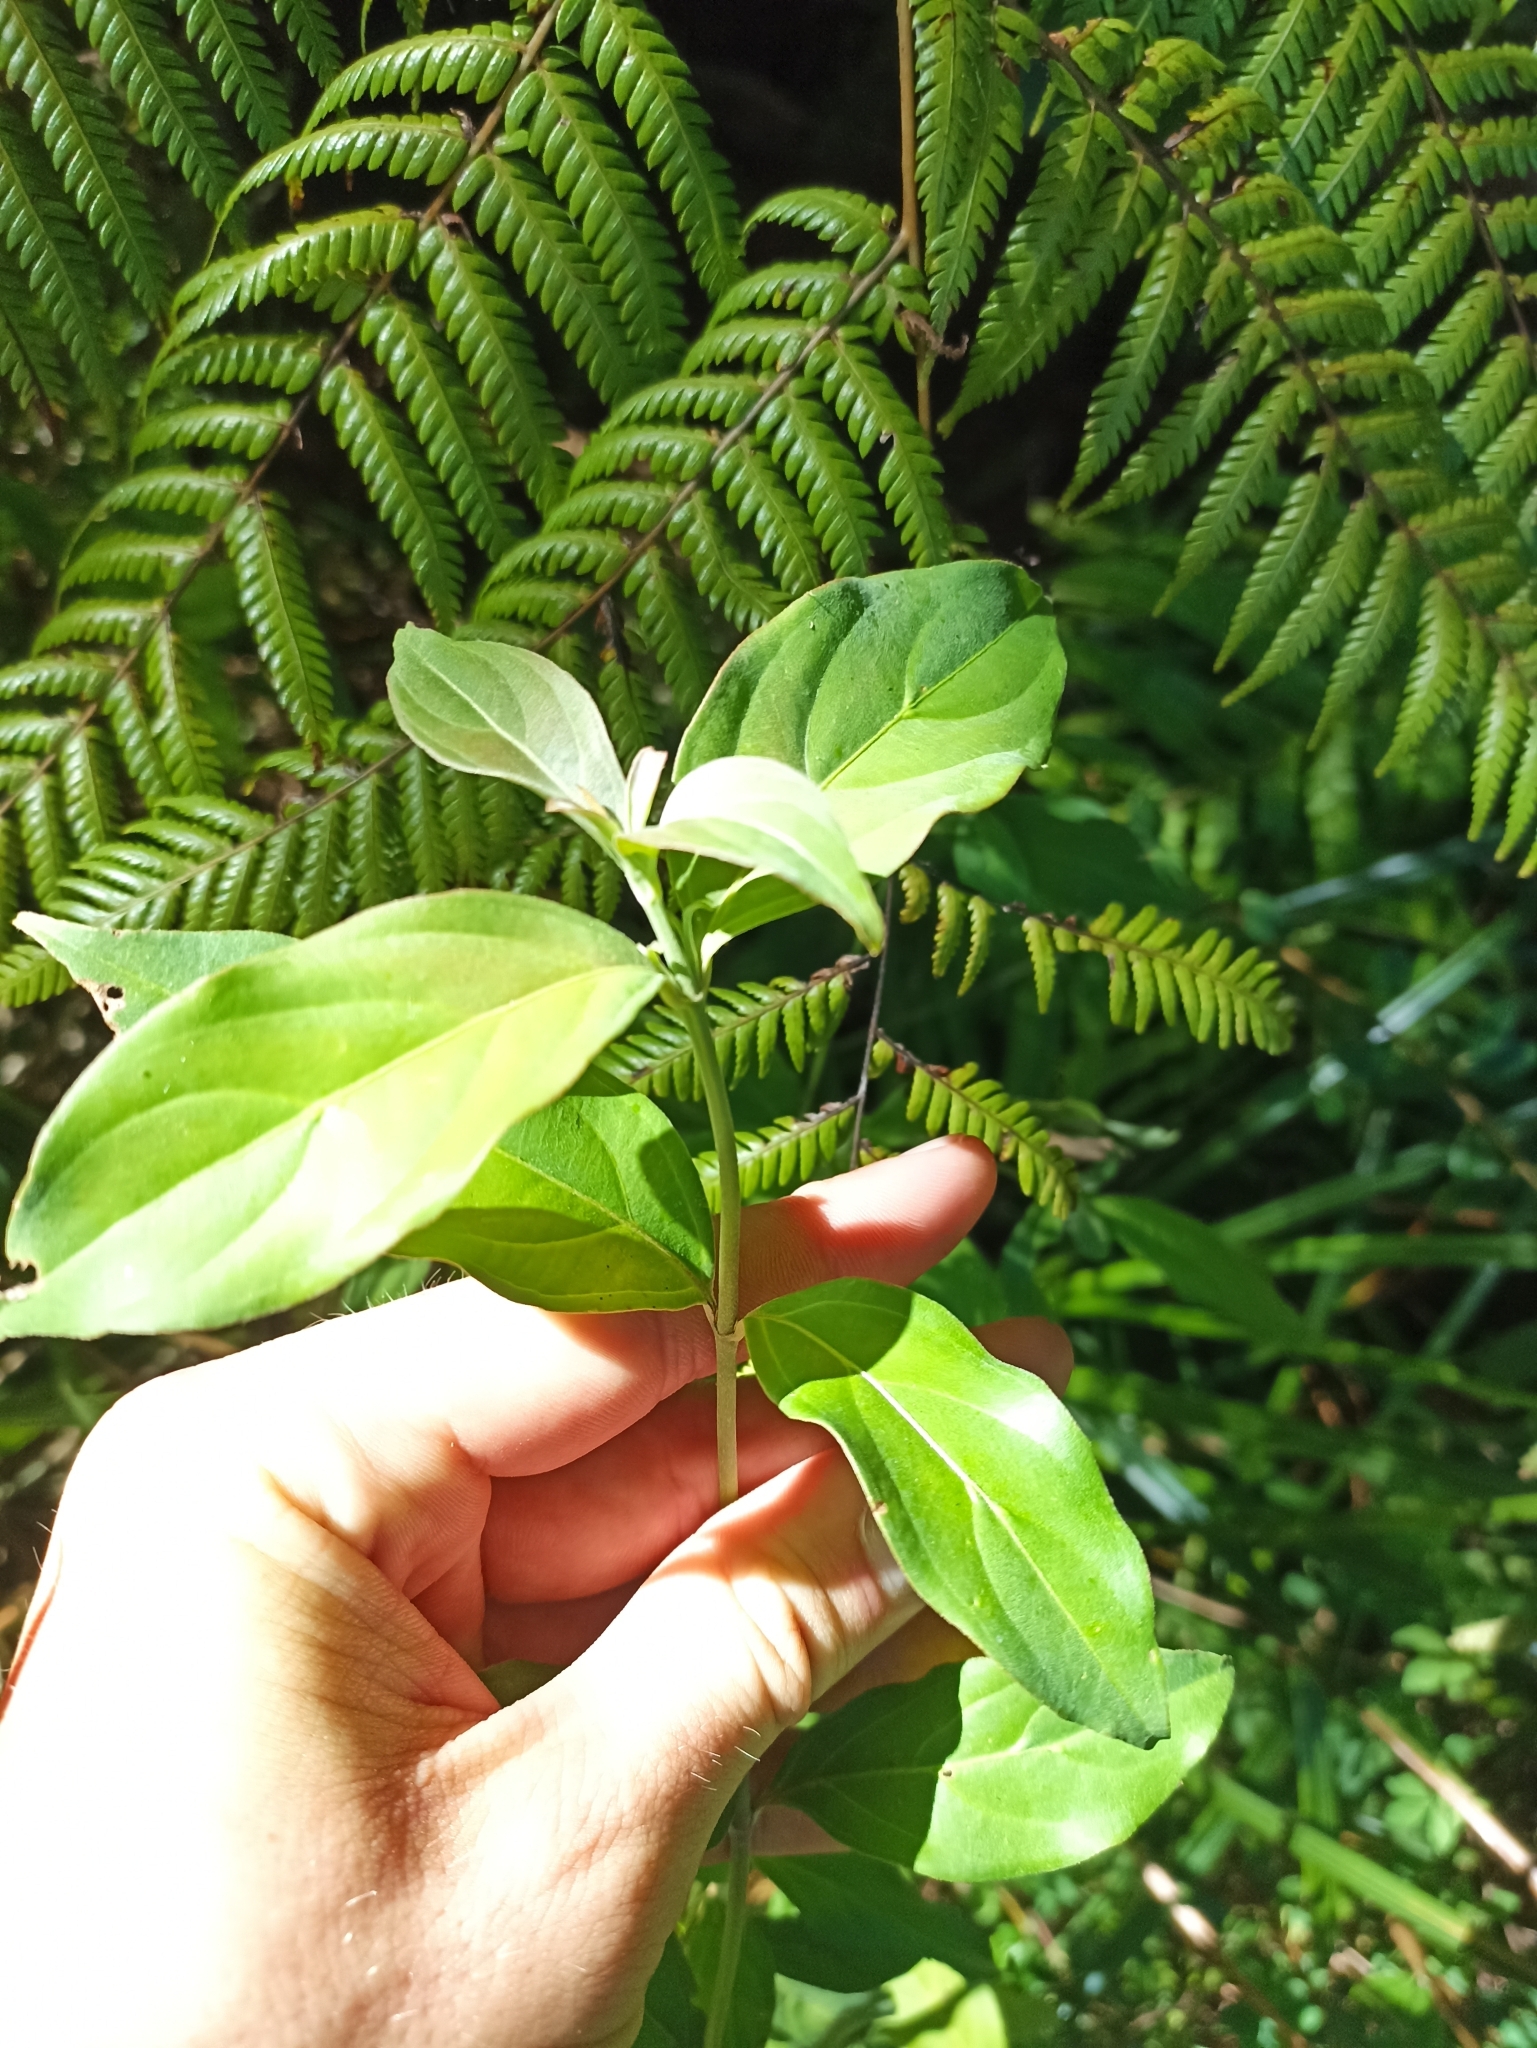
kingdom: Plantae
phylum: Tracheophyta
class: Magnoliopsida
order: Cornales
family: Cornaceae
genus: Cornus
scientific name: Cornus capitata
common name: Bentham's cornel
